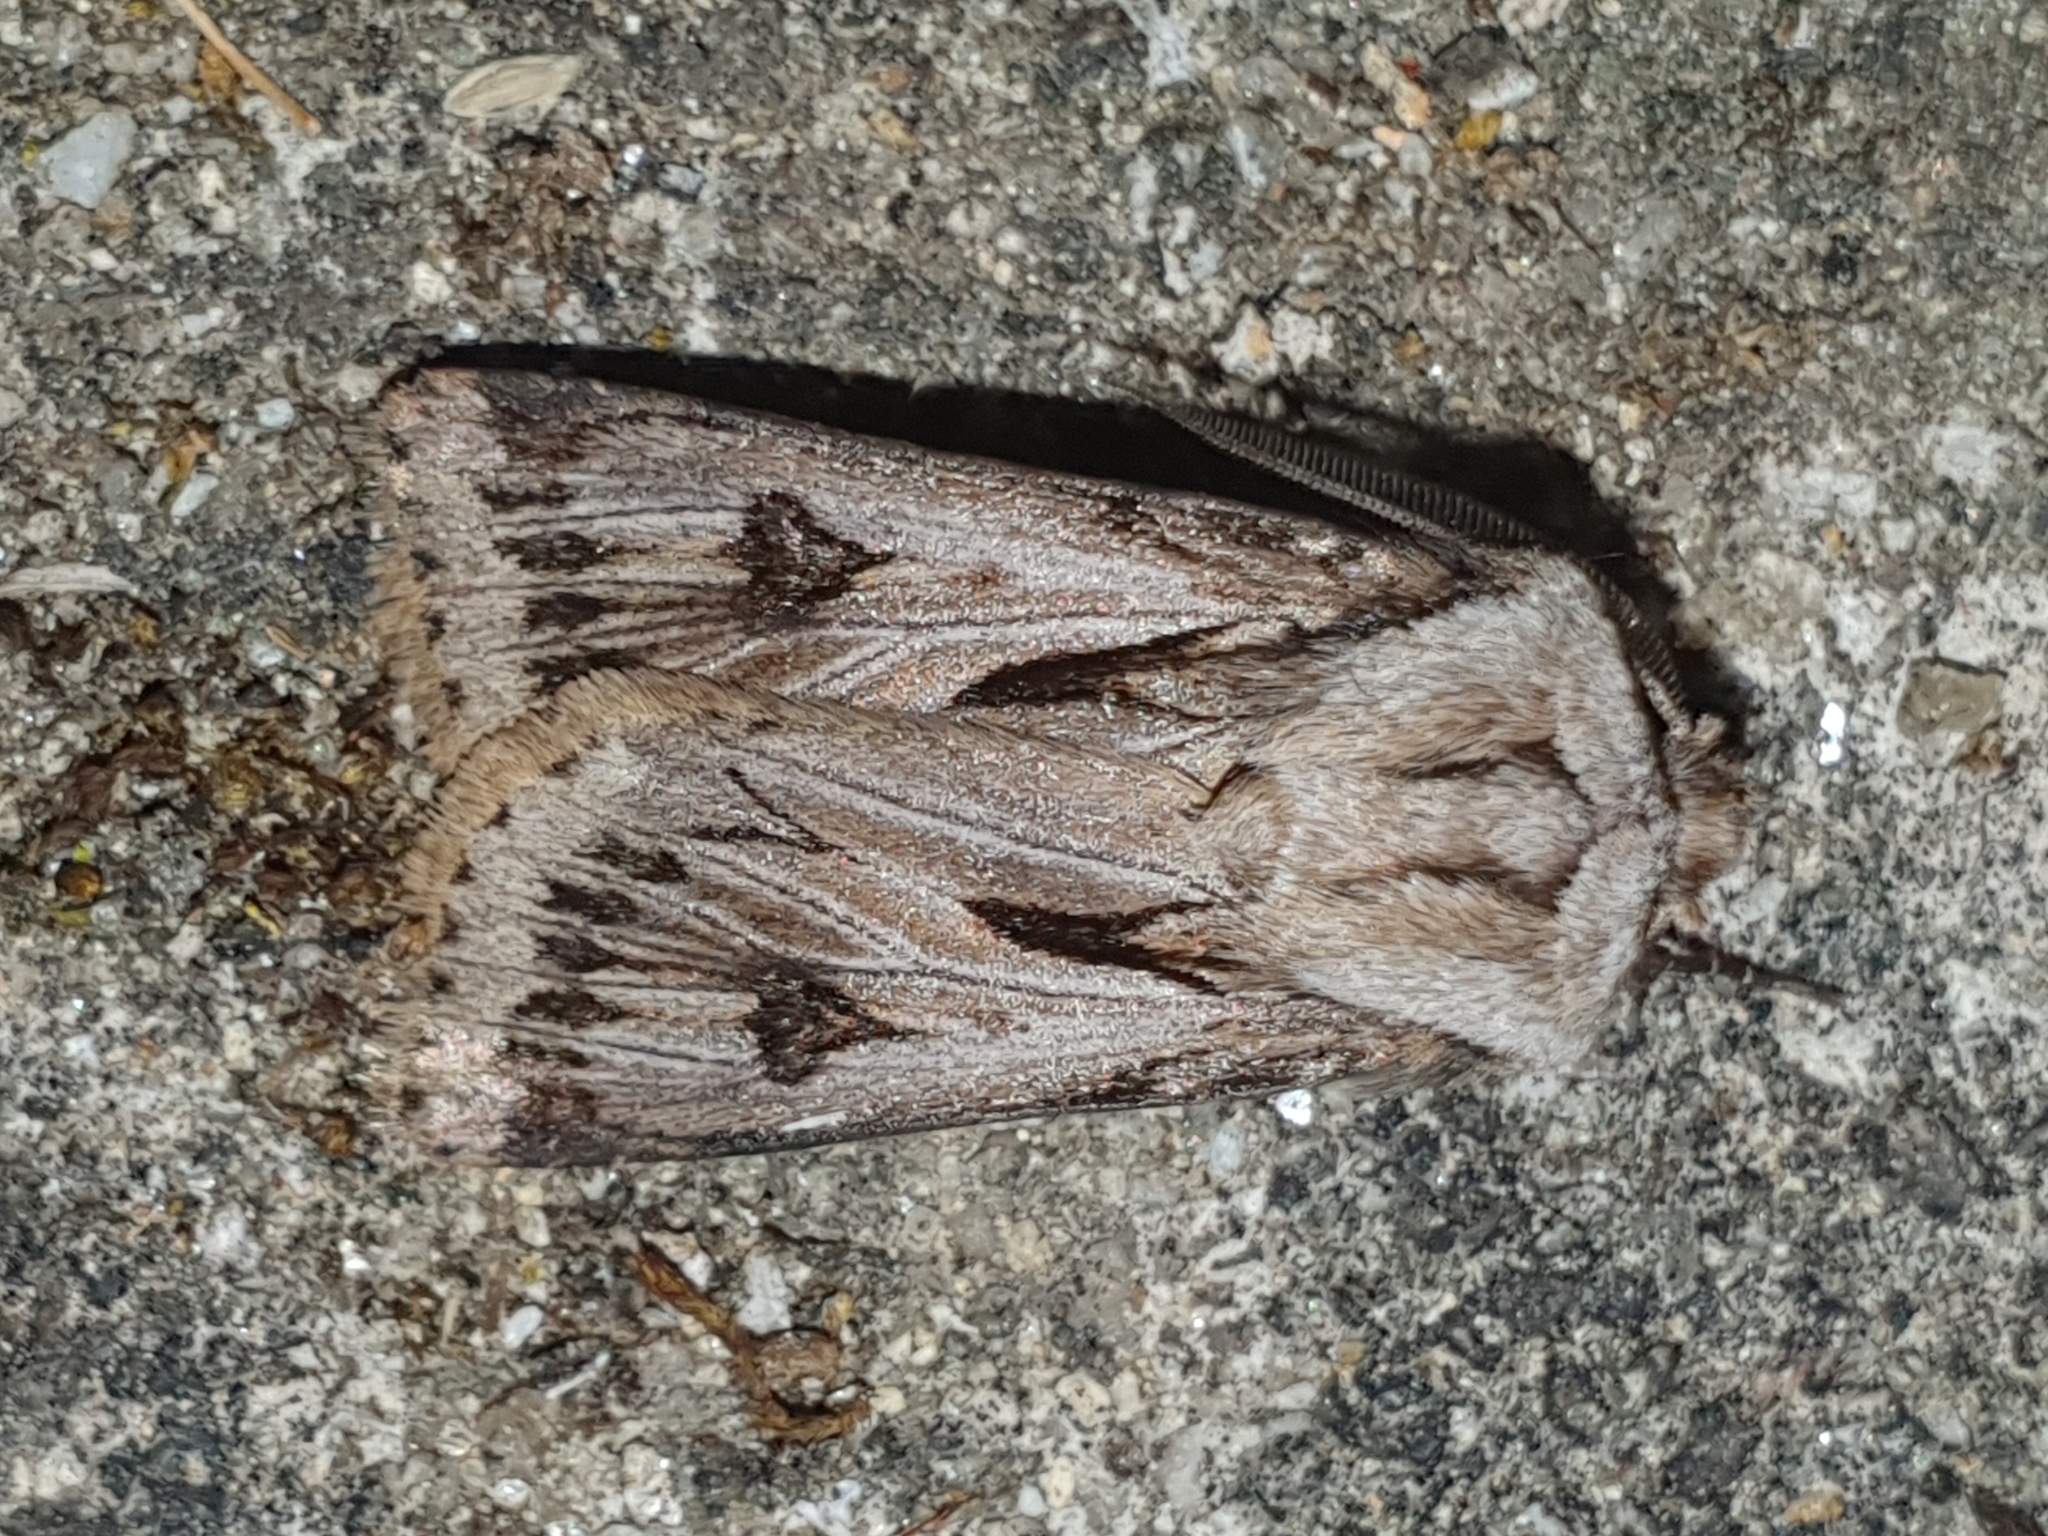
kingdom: Animalia
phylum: Arthropoda
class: Insecta
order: Lepidoptera
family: Noctuidae
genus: Agrotis
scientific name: Agrotis chretieni
